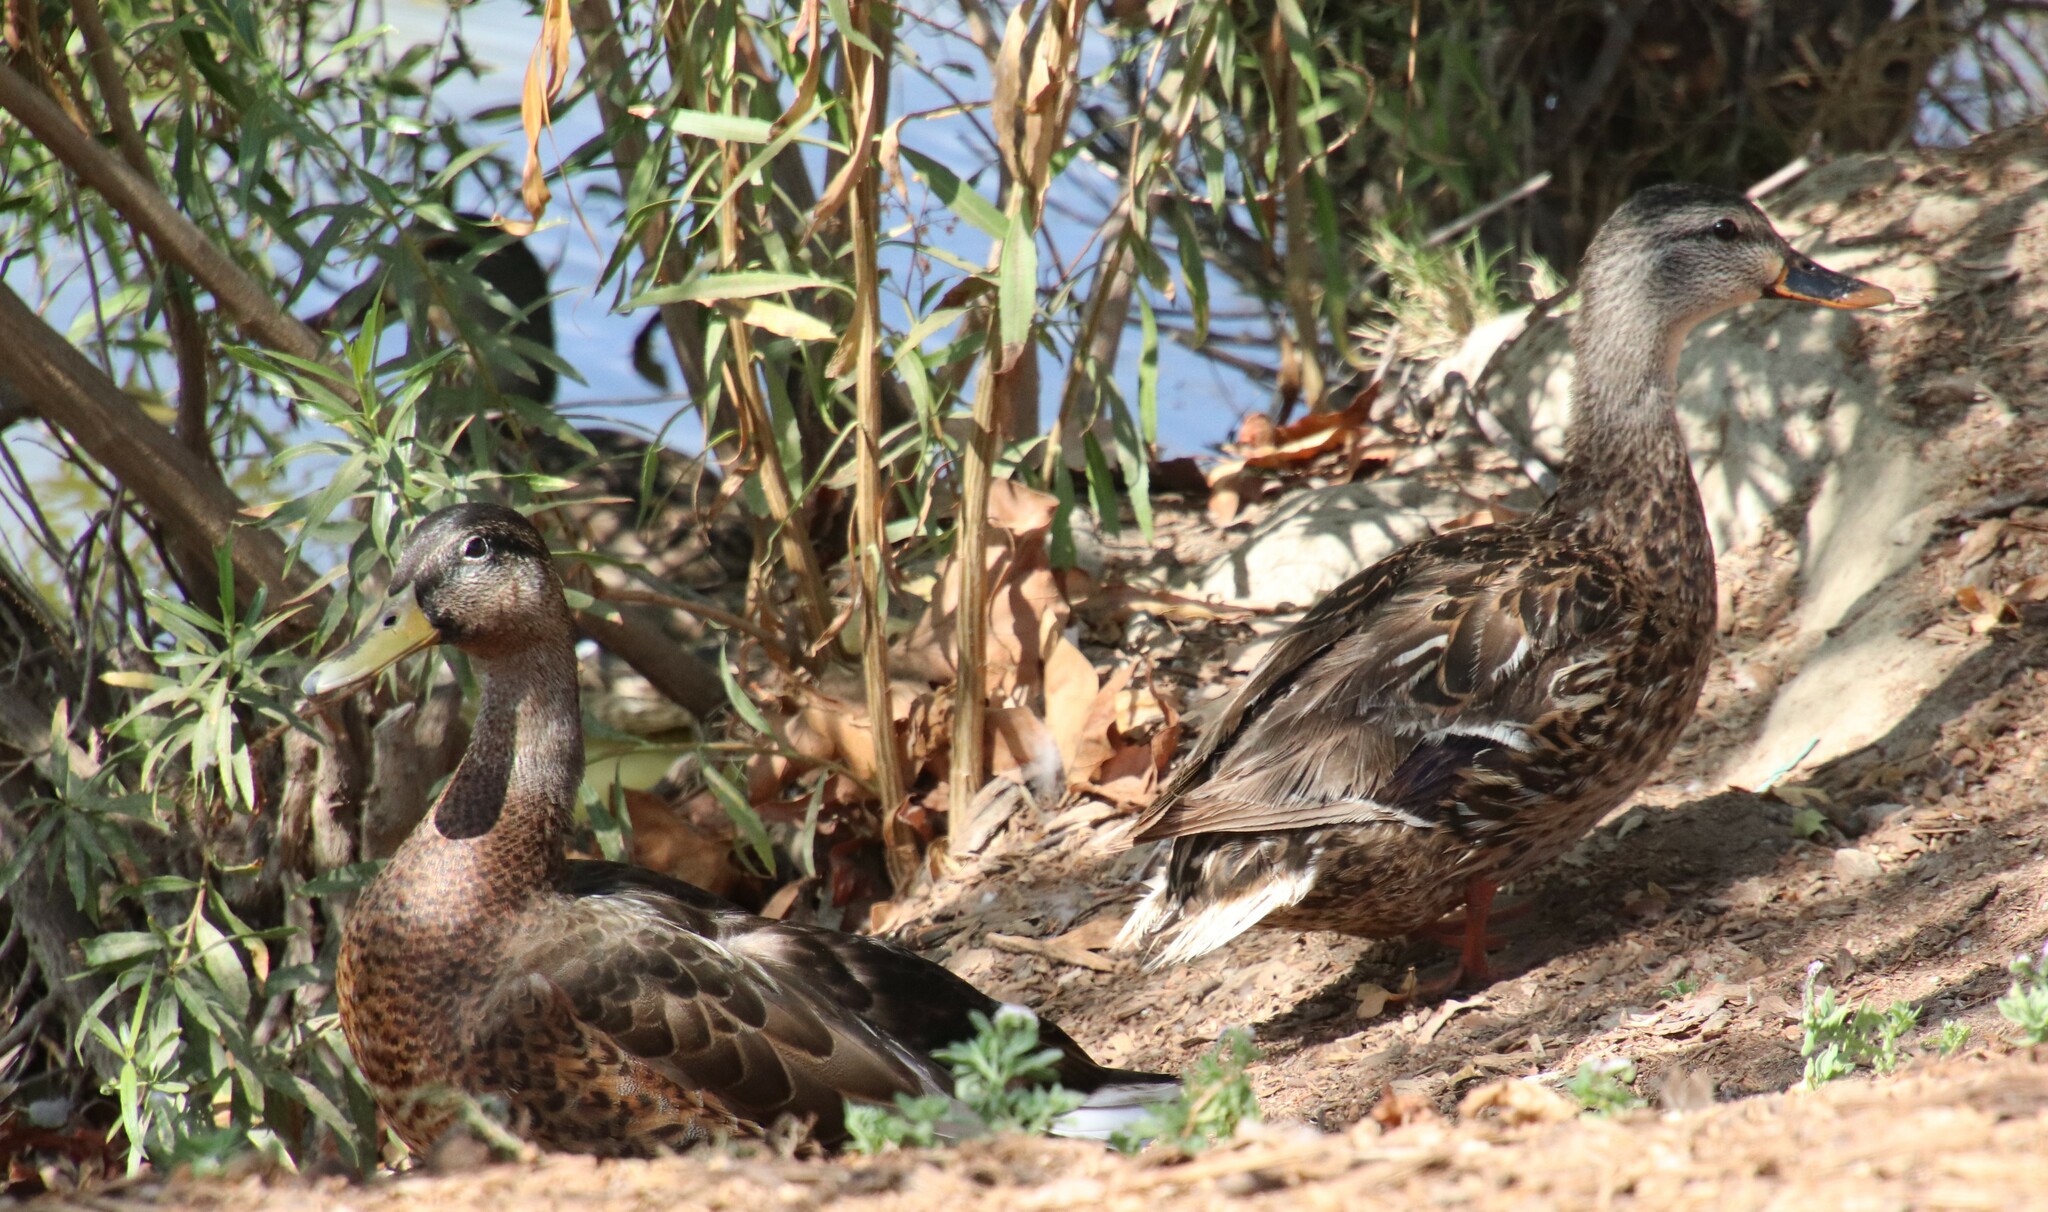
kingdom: Animalia
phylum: Chordata
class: Aves
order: Anseriformes
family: Anatidae
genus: Anas
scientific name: Anas platyrhynchos
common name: Mallard
